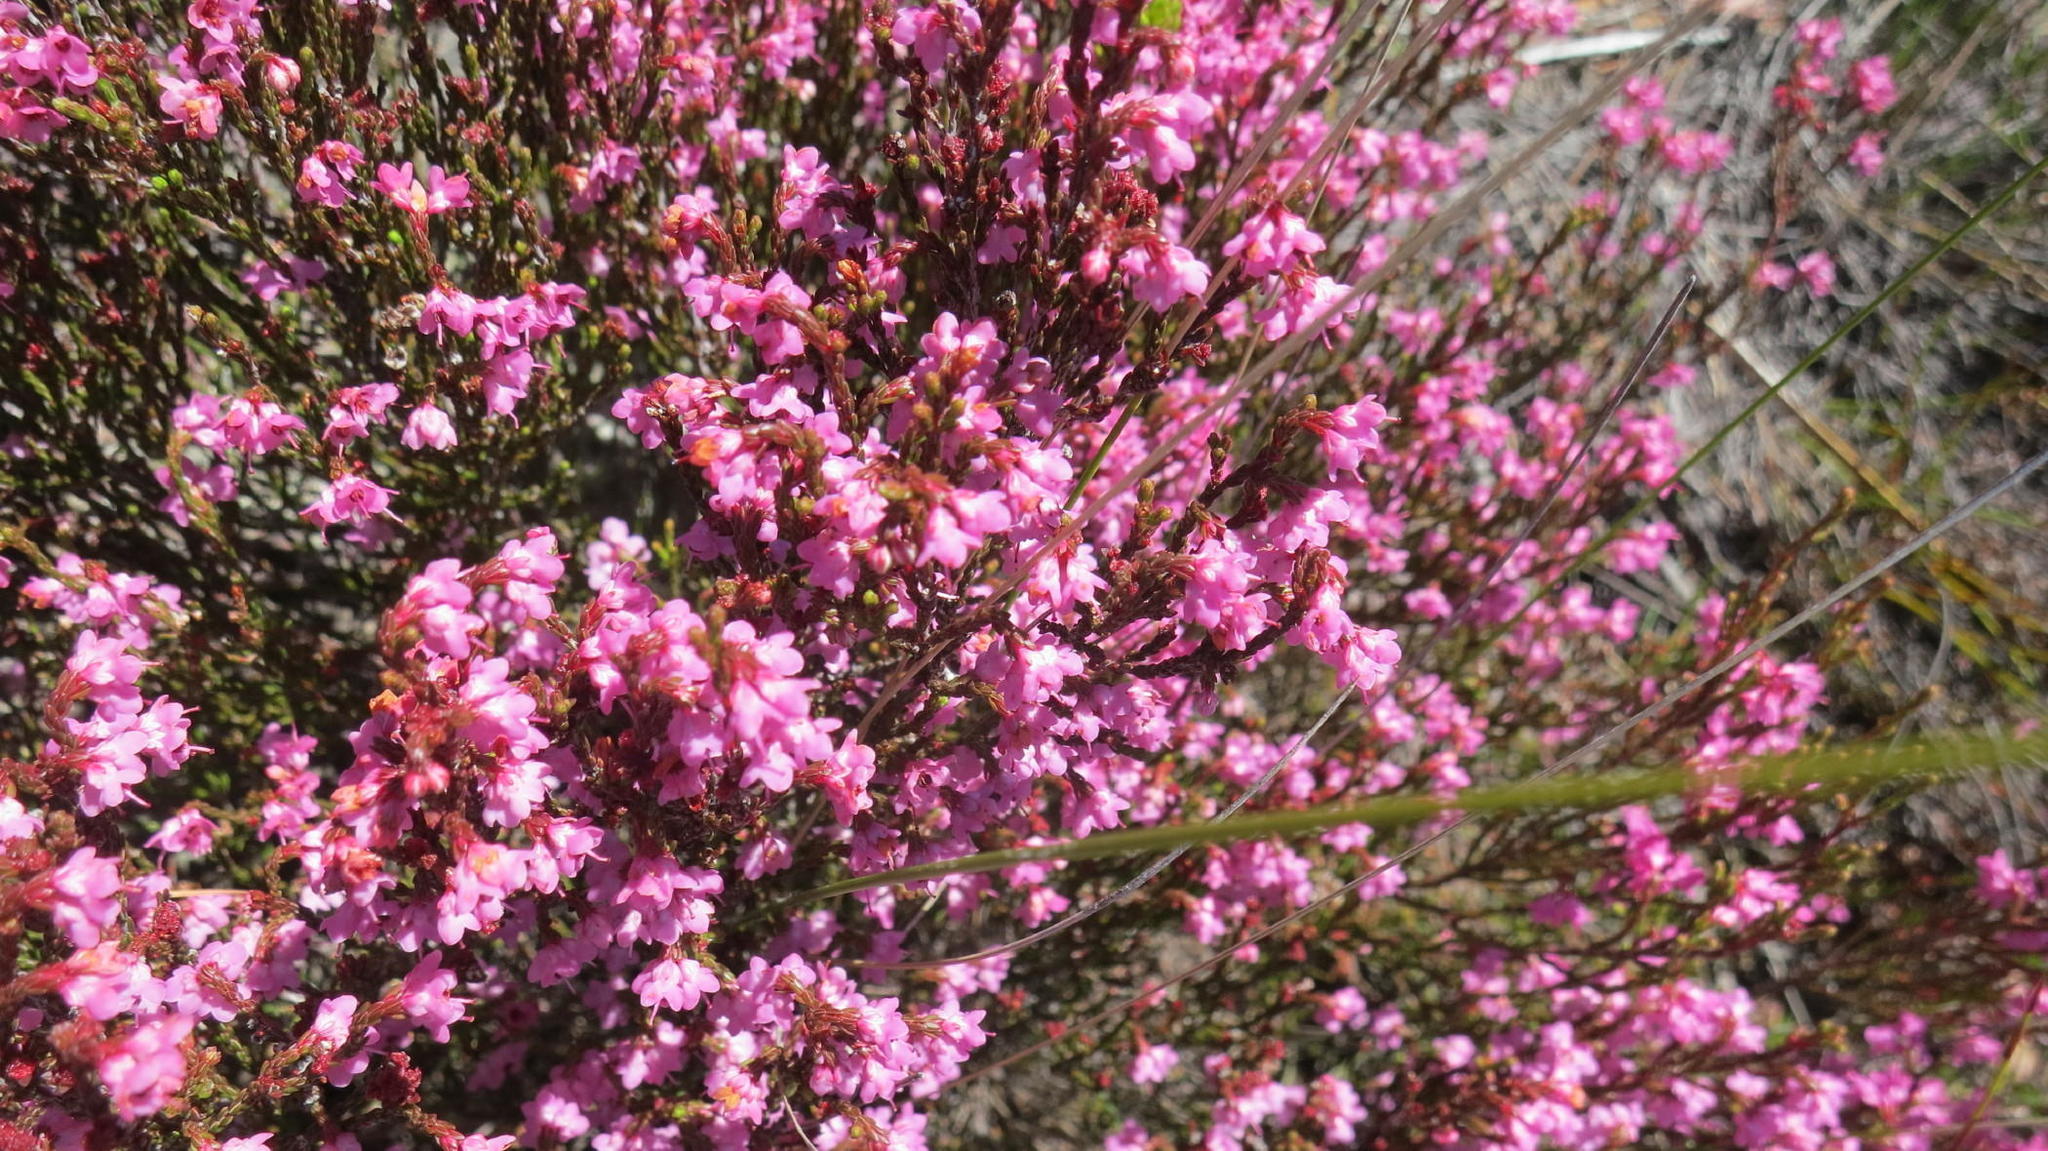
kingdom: Plantae
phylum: Tracheophyta
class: Magnoliopsida
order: Ericales
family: Ericaceae
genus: Erica
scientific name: Erica humifusa
